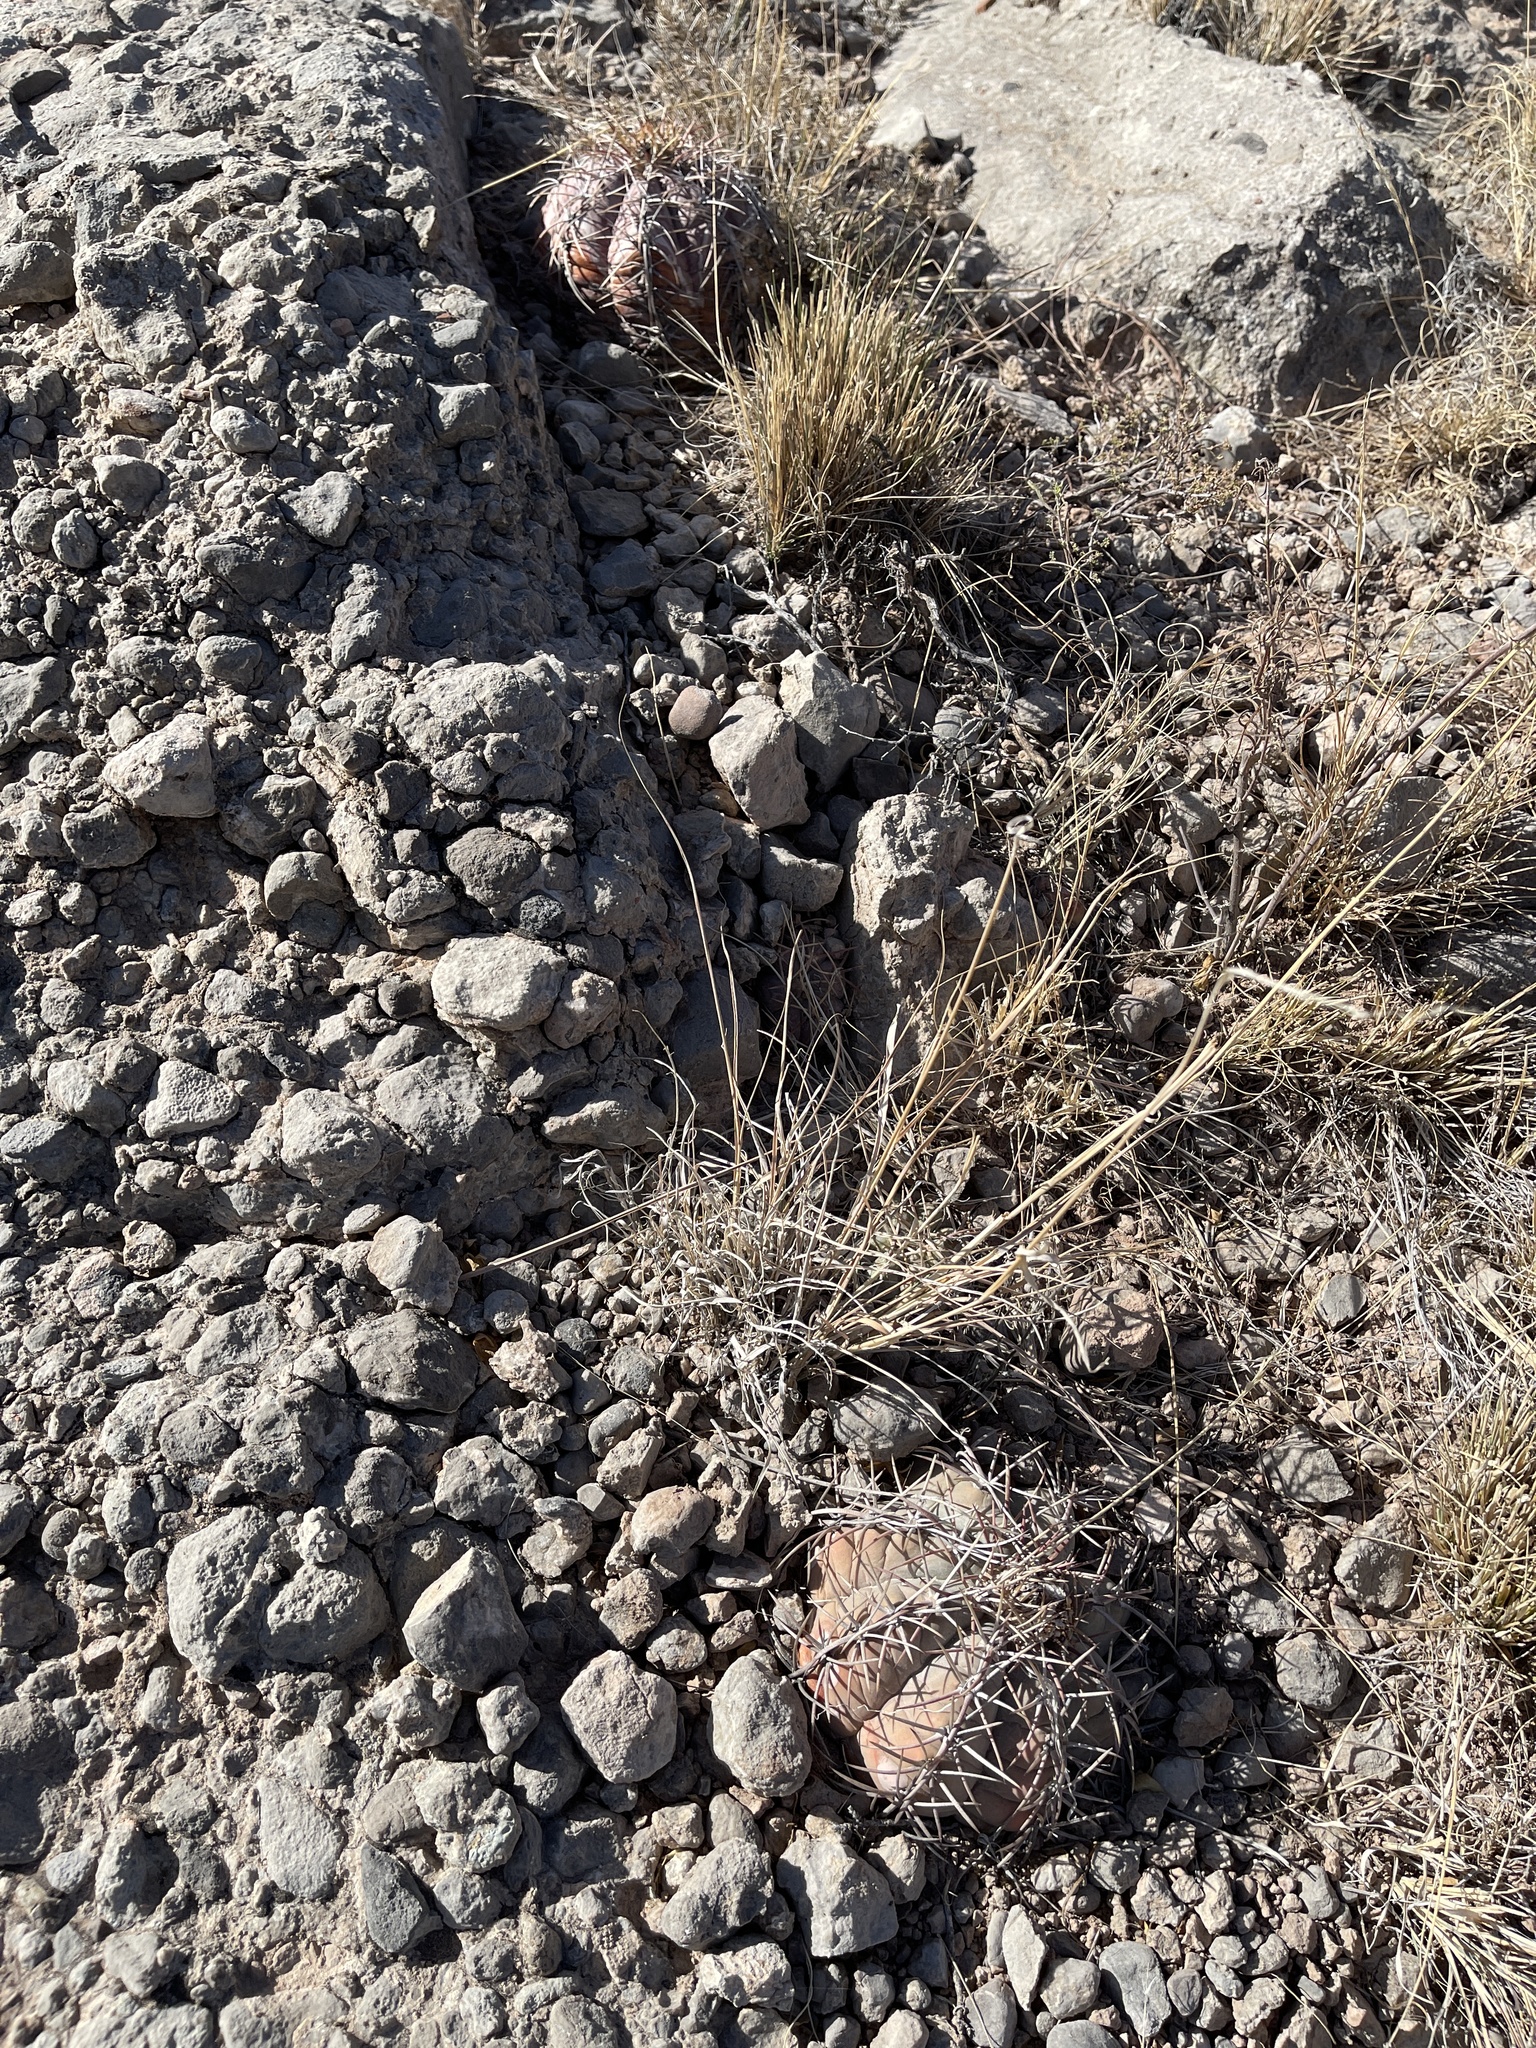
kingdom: Plantae
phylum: Tracheophyta
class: Magnoliopsida
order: Caryophyllales
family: Cactaceae
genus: Echinocactus
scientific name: Echinocactus horizonthalonius
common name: Devilshead
